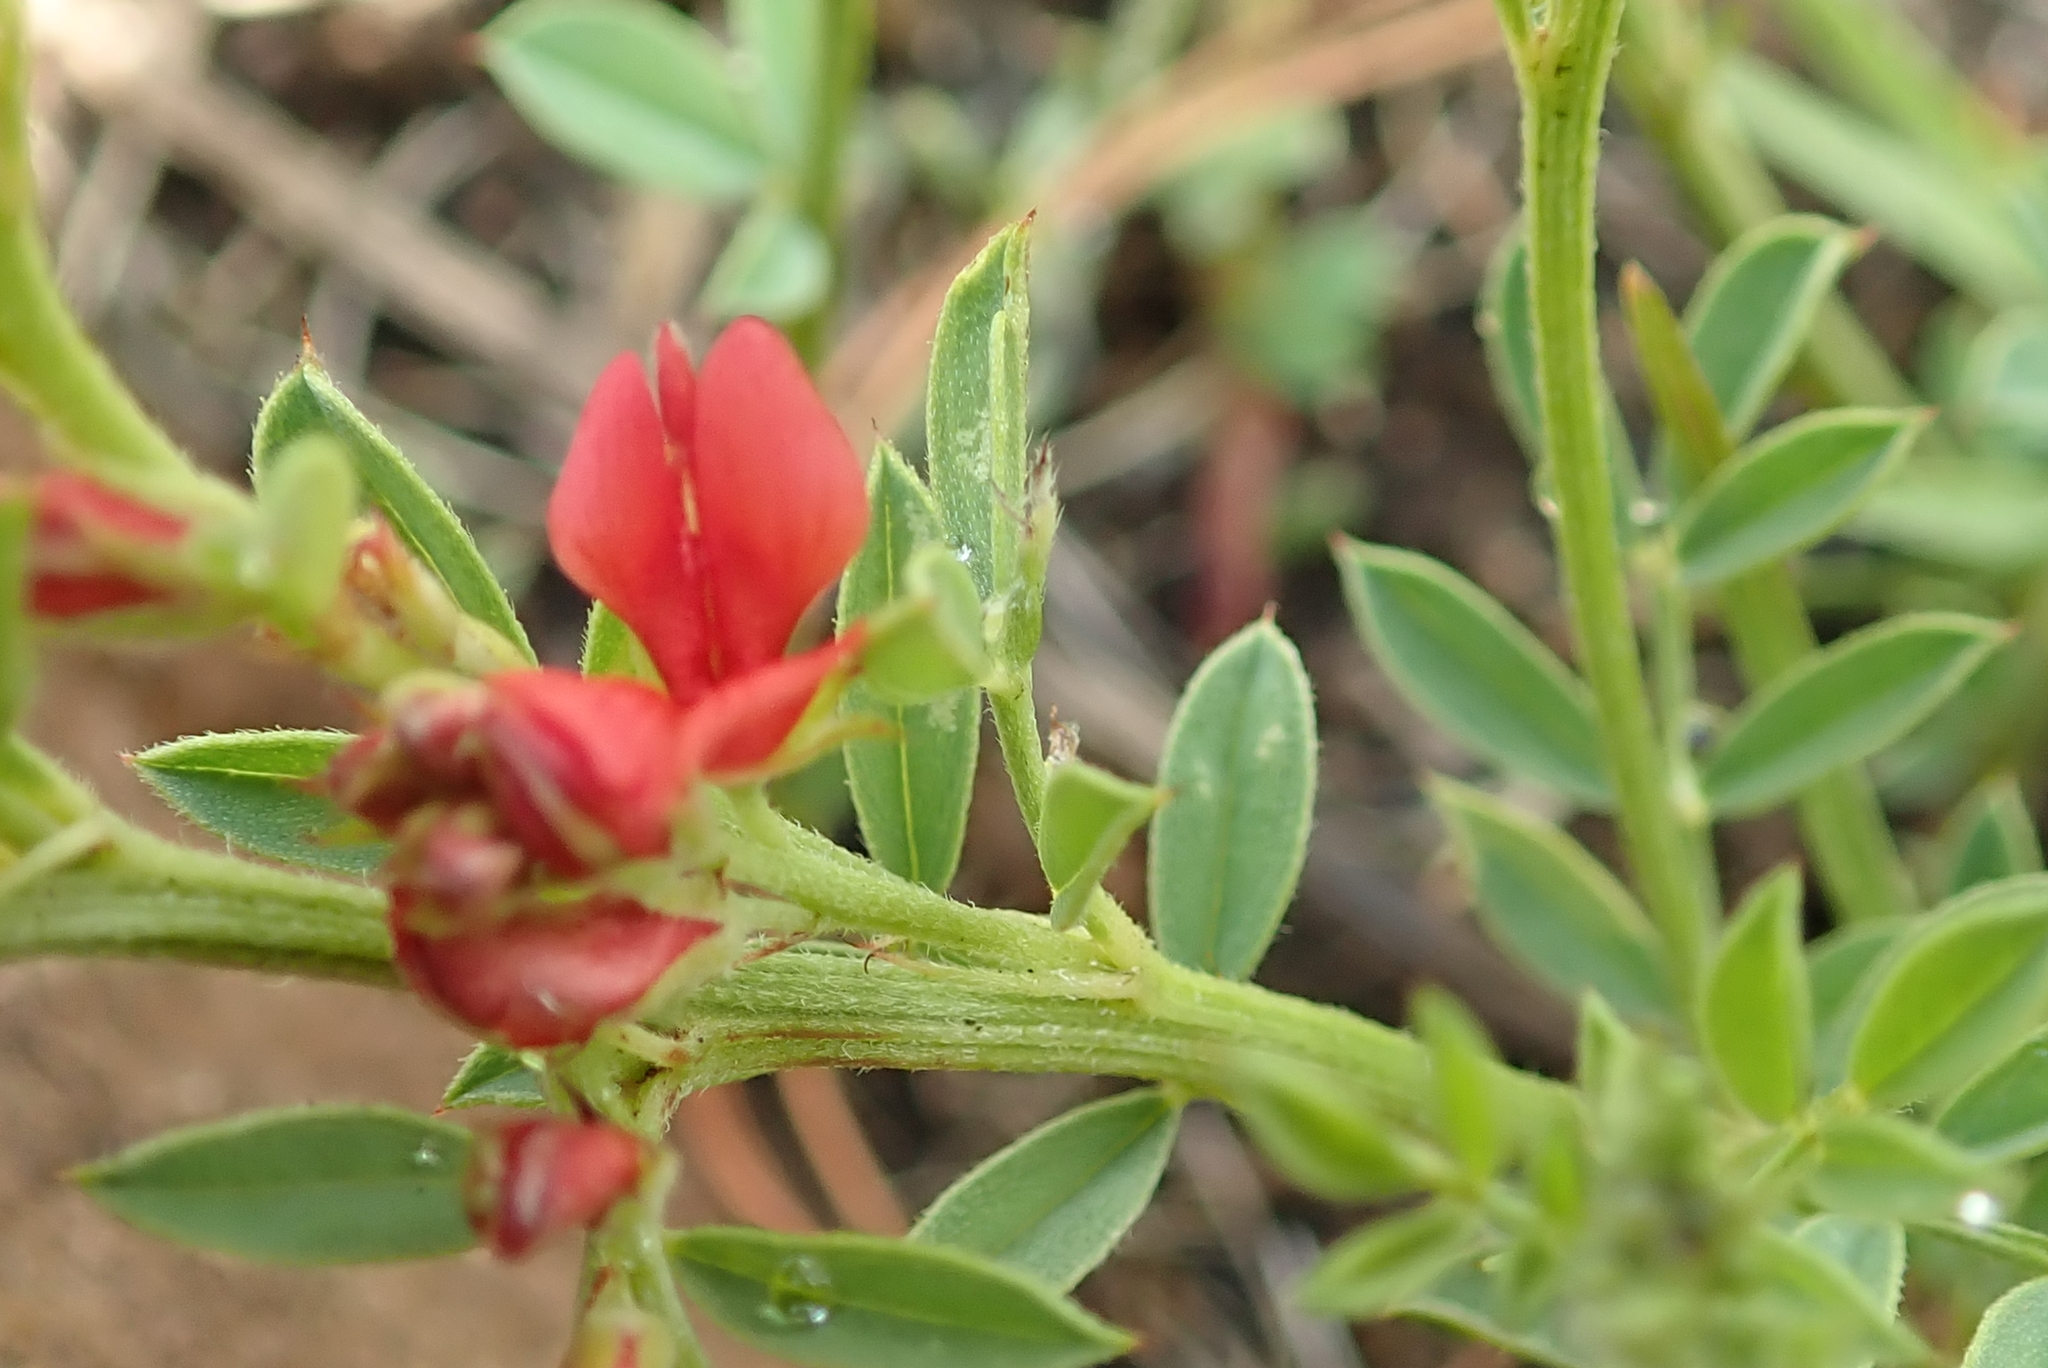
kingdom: Plantae
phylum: Tracheophyta
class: Magnoliopsida
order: Fabales
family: Fabaceae
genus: Indigofera
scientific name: Indigofera hilaris
